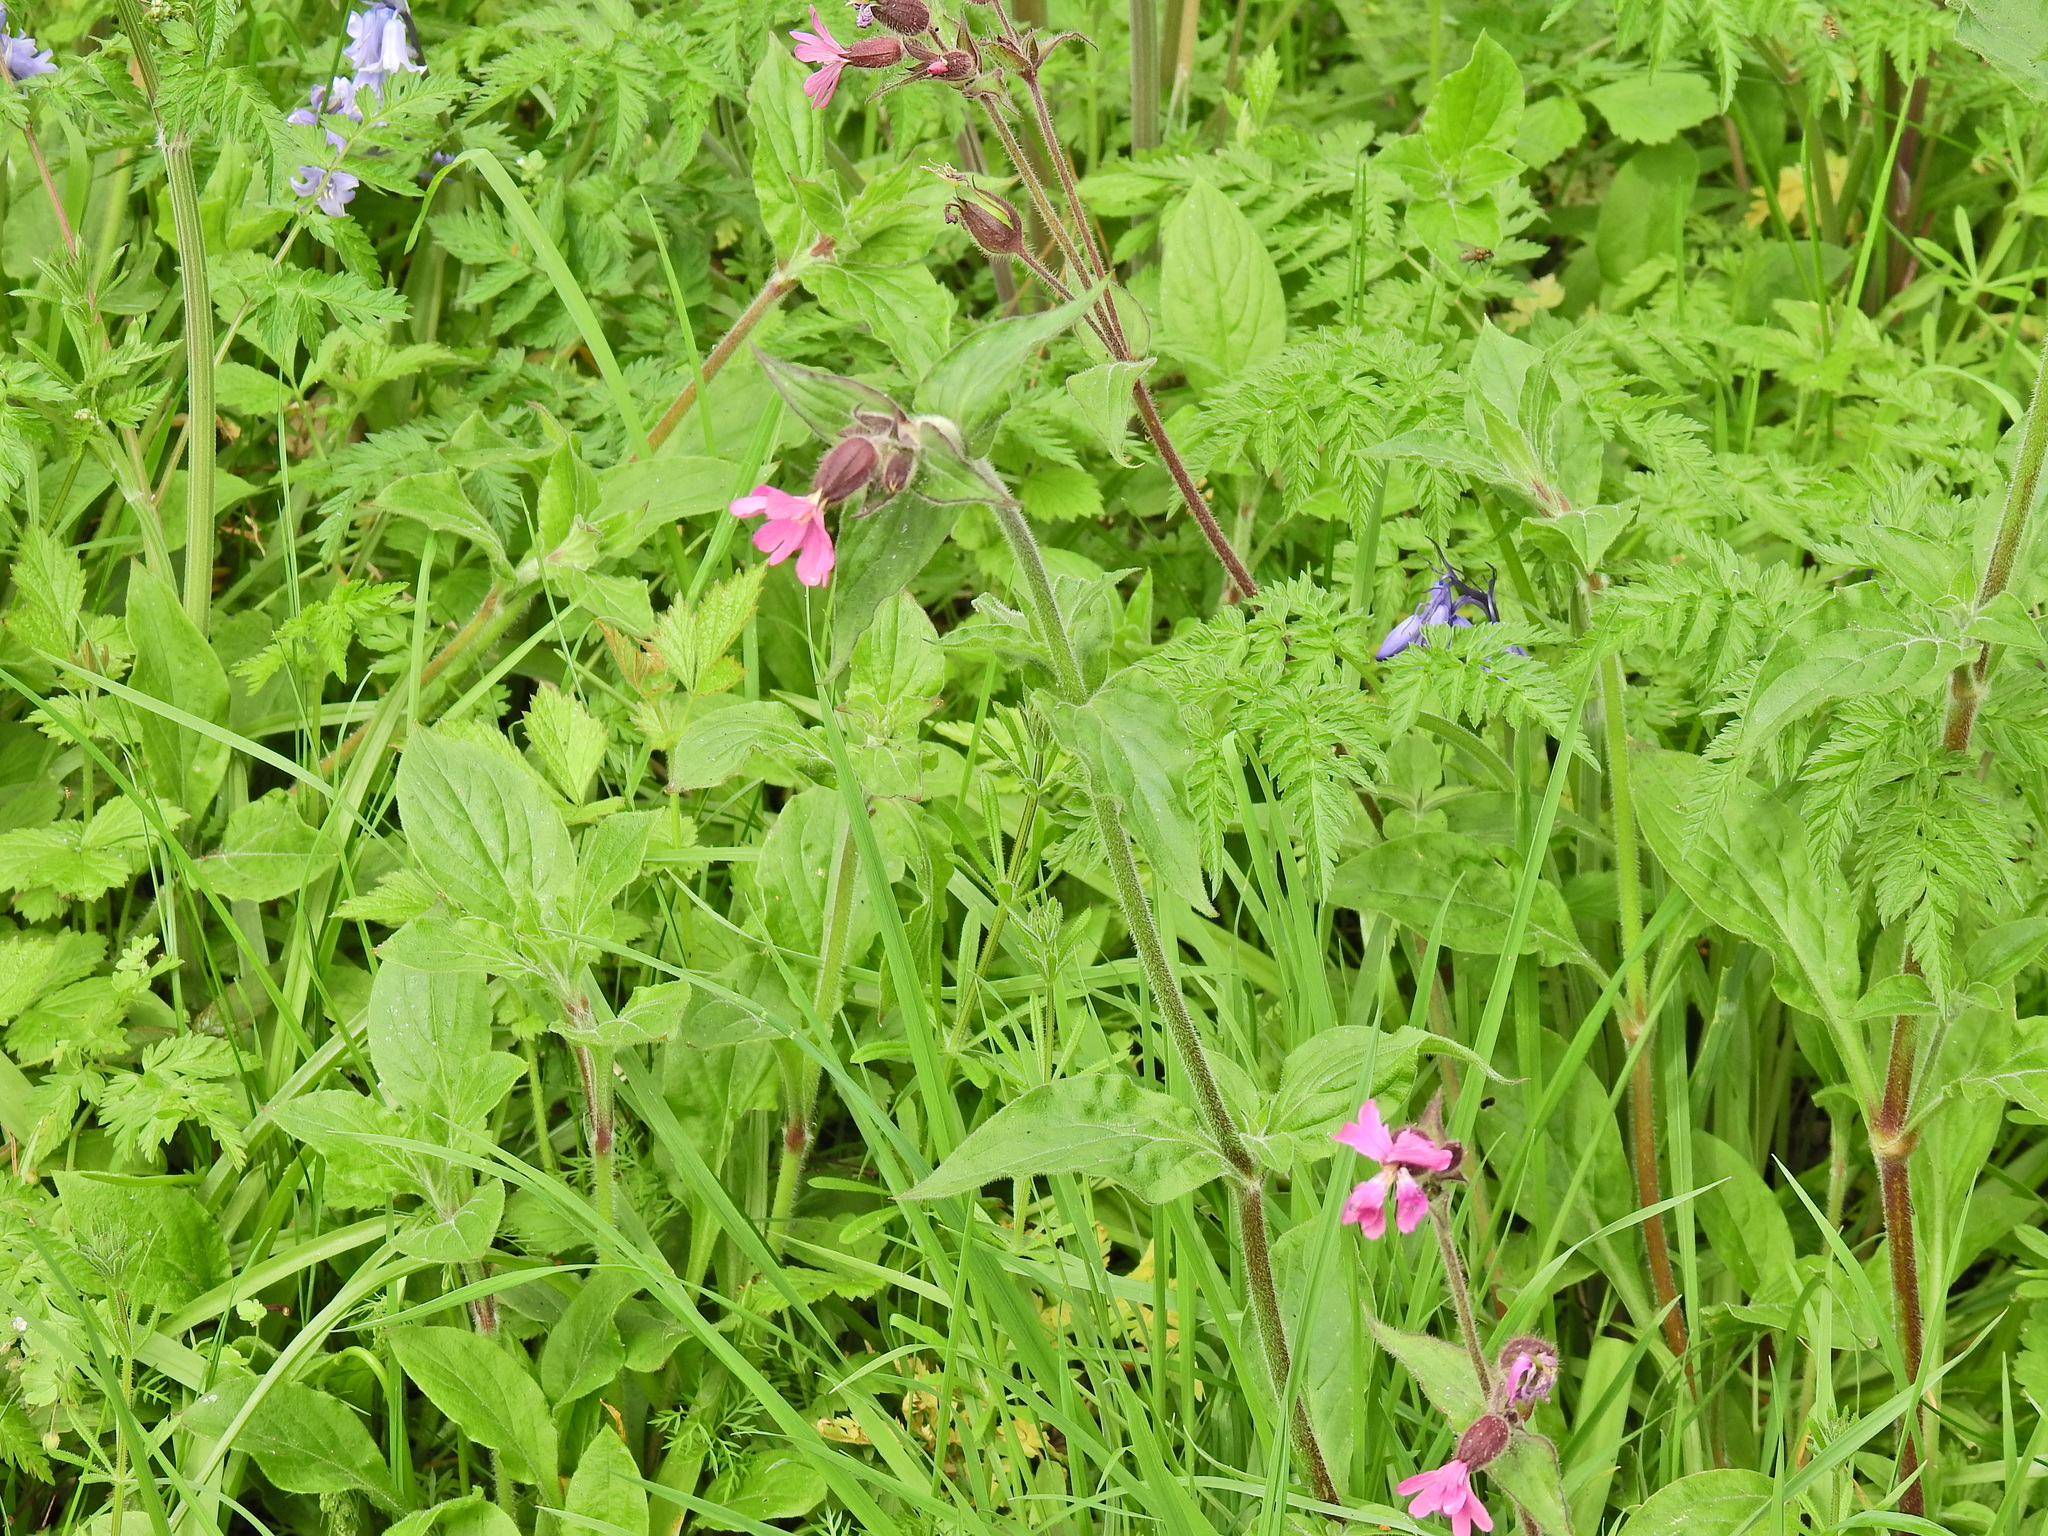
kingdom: Plantae
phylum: Tracheophyta
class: Magnoliopsida
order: Caryophyllales
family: Caryophyllaceae
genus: Silene
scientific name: Silene dioica
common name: Red campion
